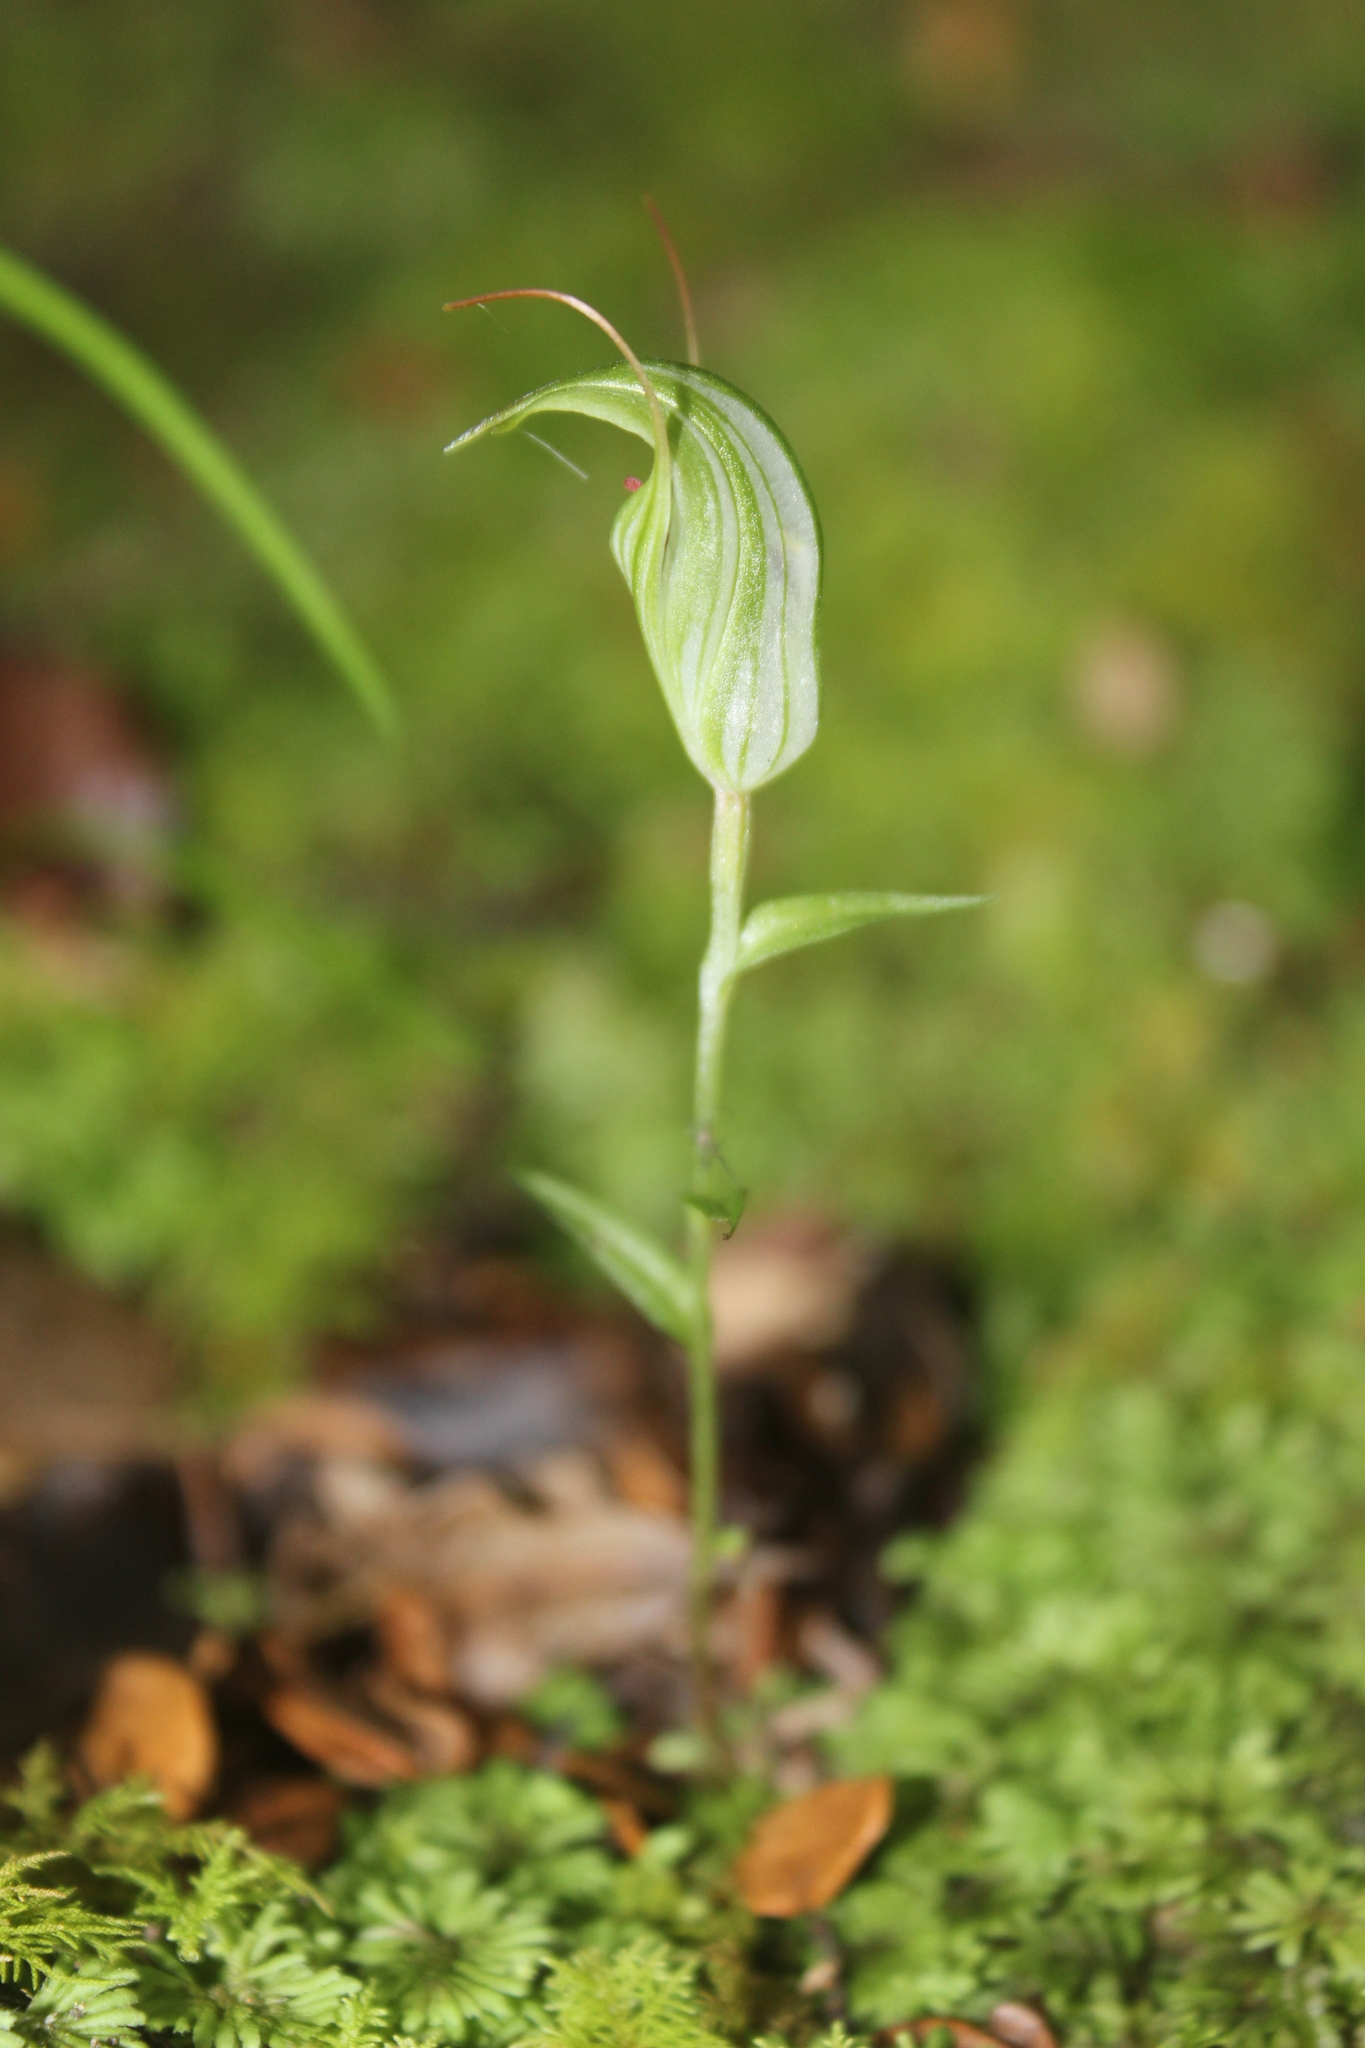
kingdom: Plantae
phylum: Tracheophyta
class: Liliopsida
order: Asparagales
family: Orchidaceae
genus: Pterostylis
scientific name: Pterostylis alobula
